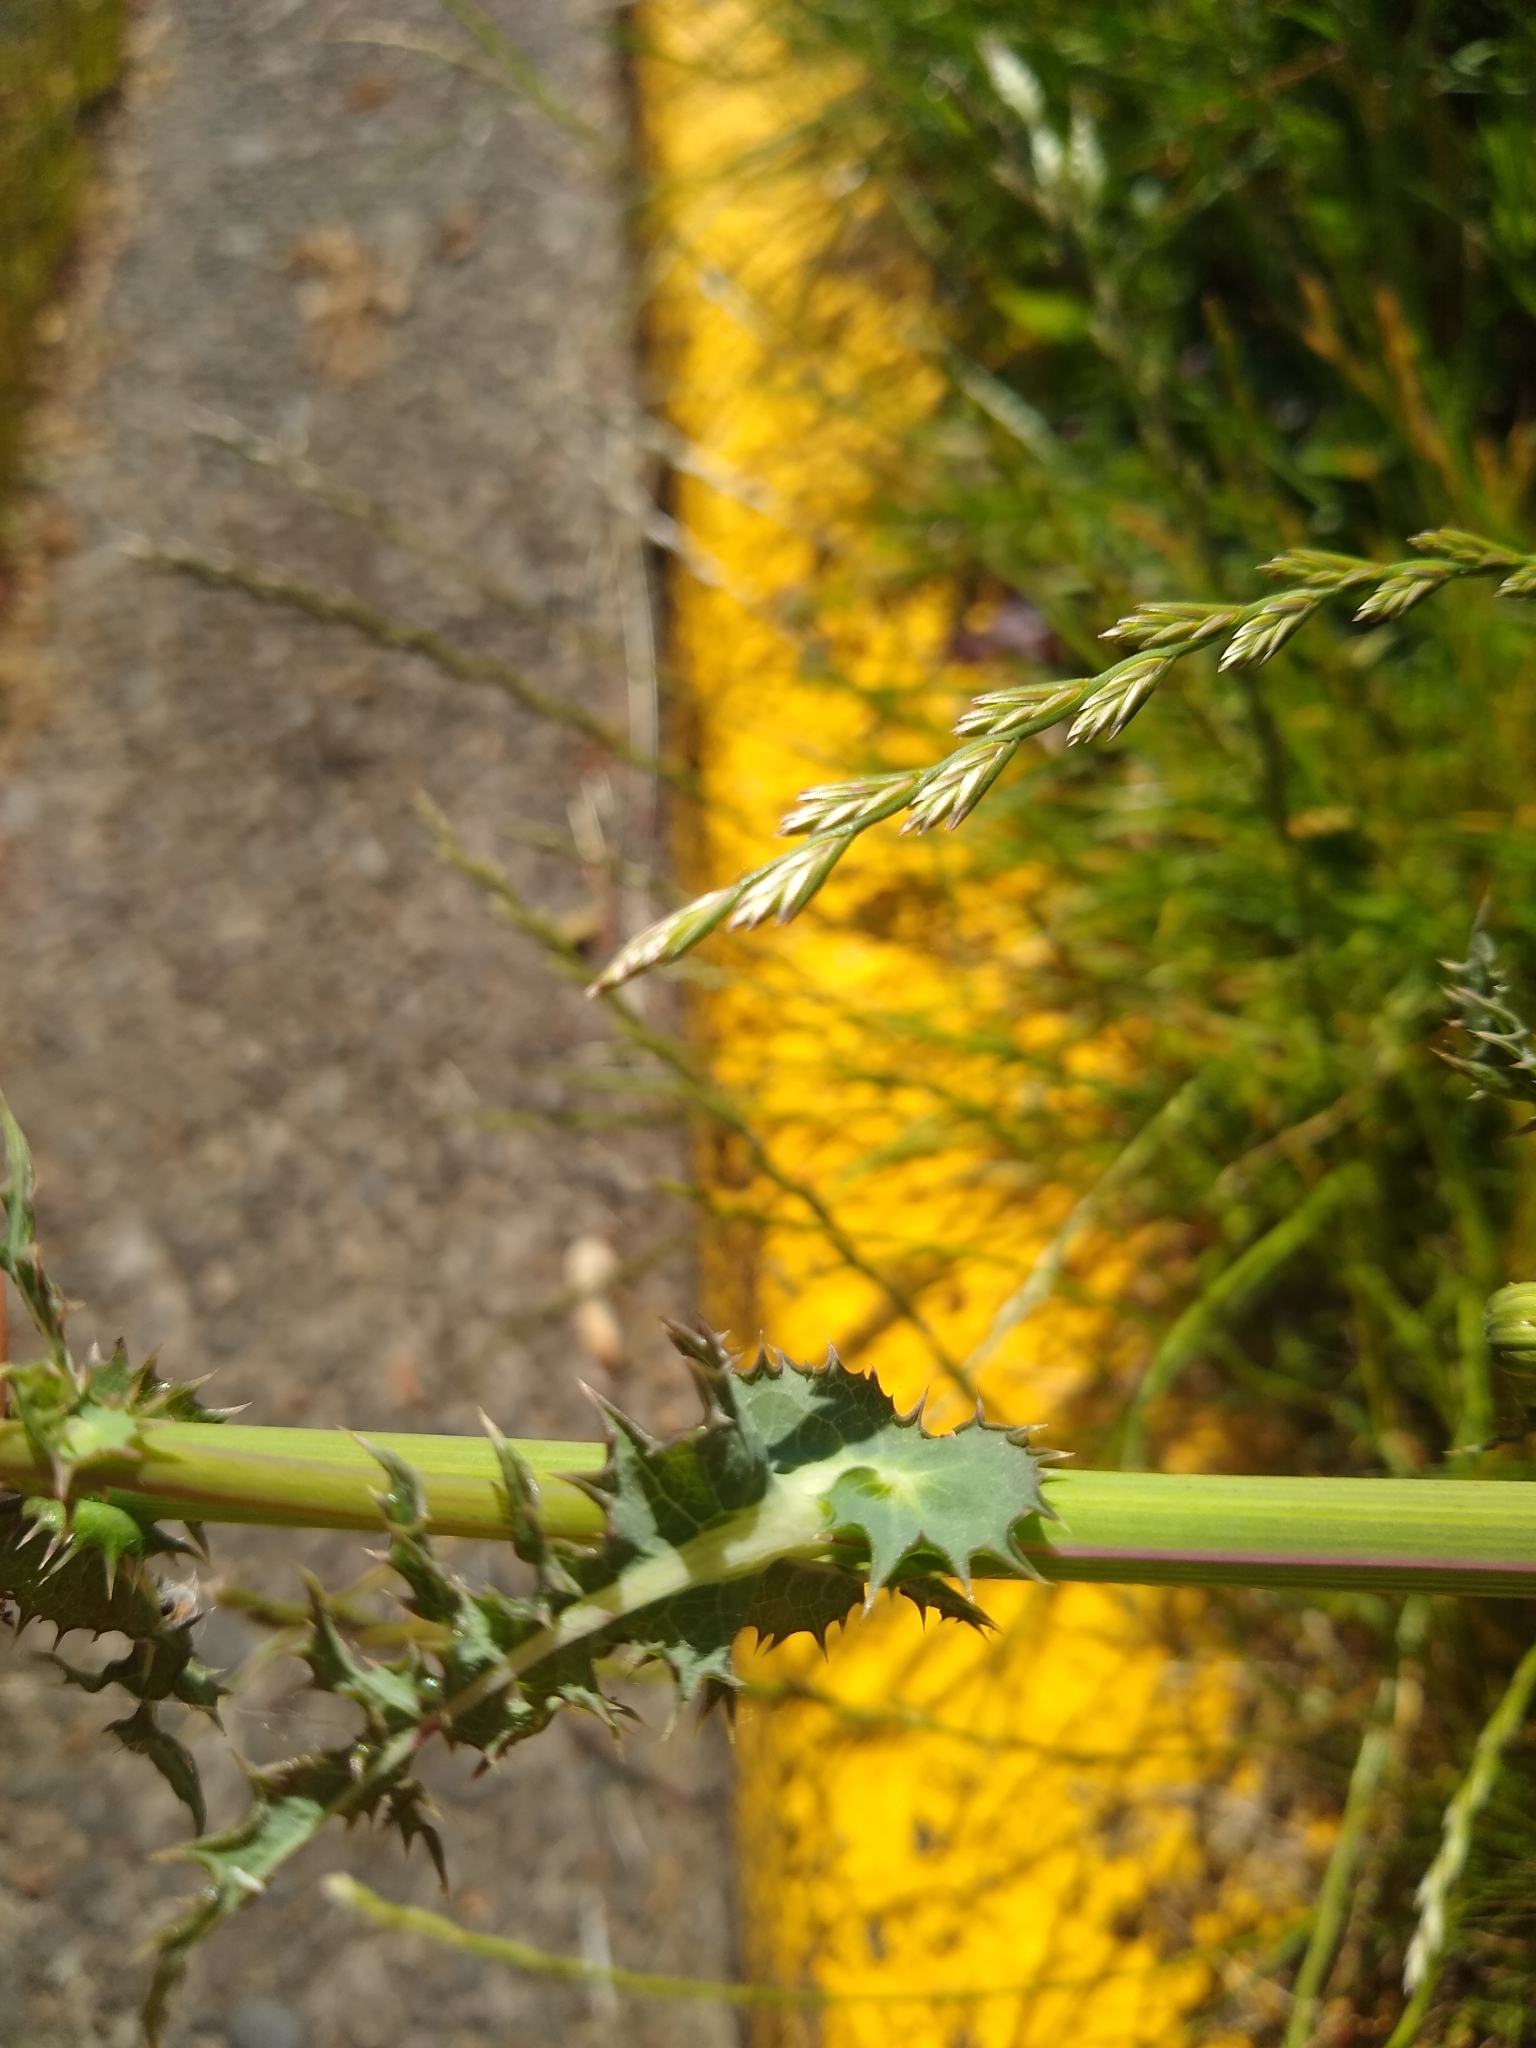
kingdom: Plantae
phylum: Tracheophyta
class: Magnoliopsida
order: Asterales
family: Asteraceae
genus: Sonchus
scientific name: Sonchus asper
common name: Prickly sow-thistle
